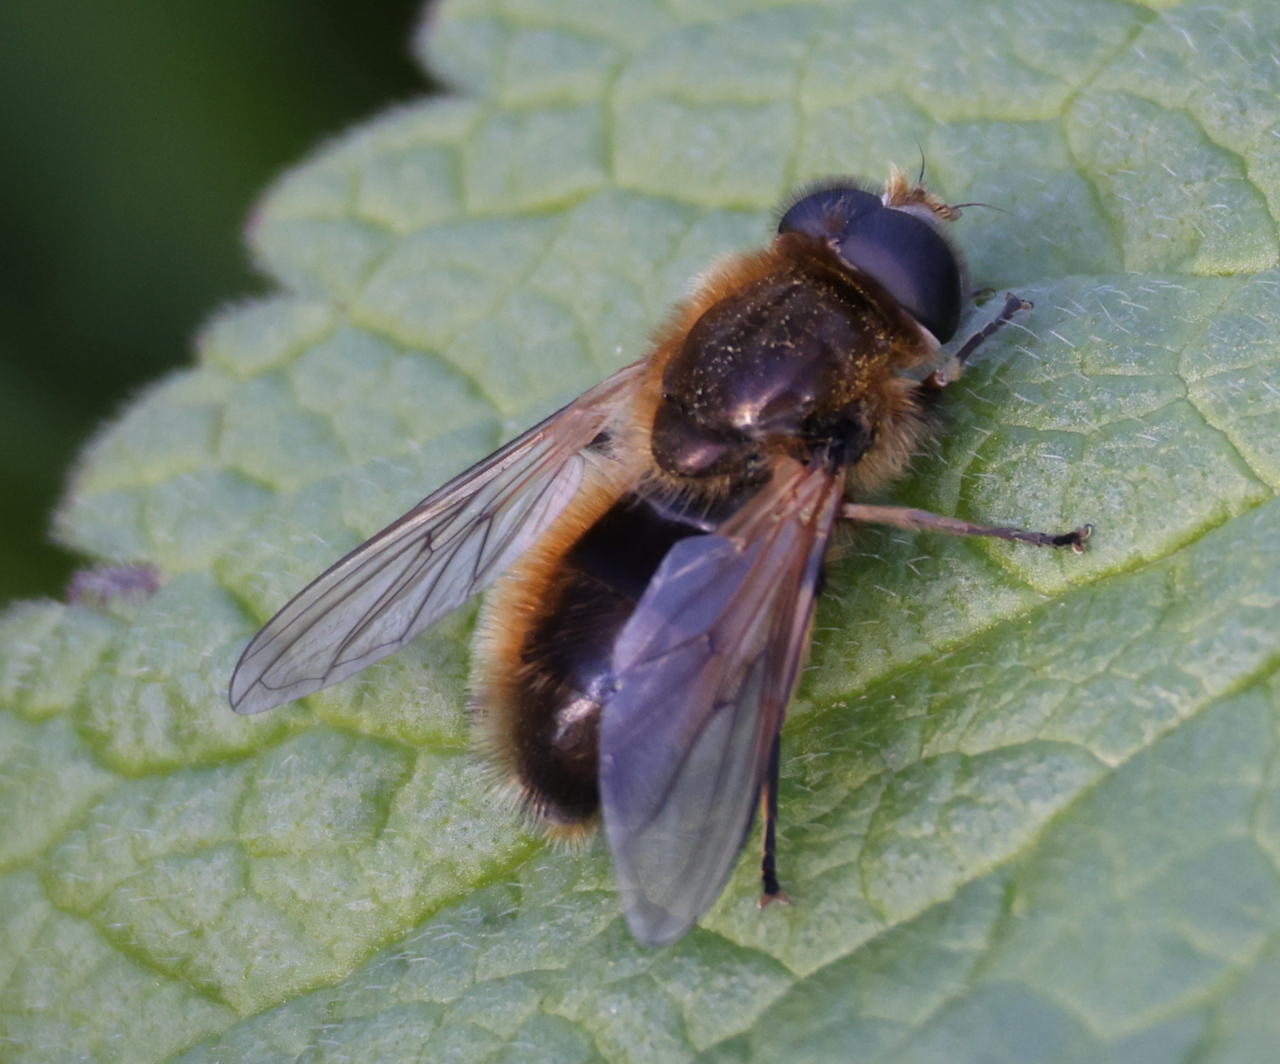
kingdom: Animalia
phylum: Arthropoda
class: Insecta
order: Diptera
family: Syrphidae
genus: Cheilosia
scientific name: Cheilosia corydon
